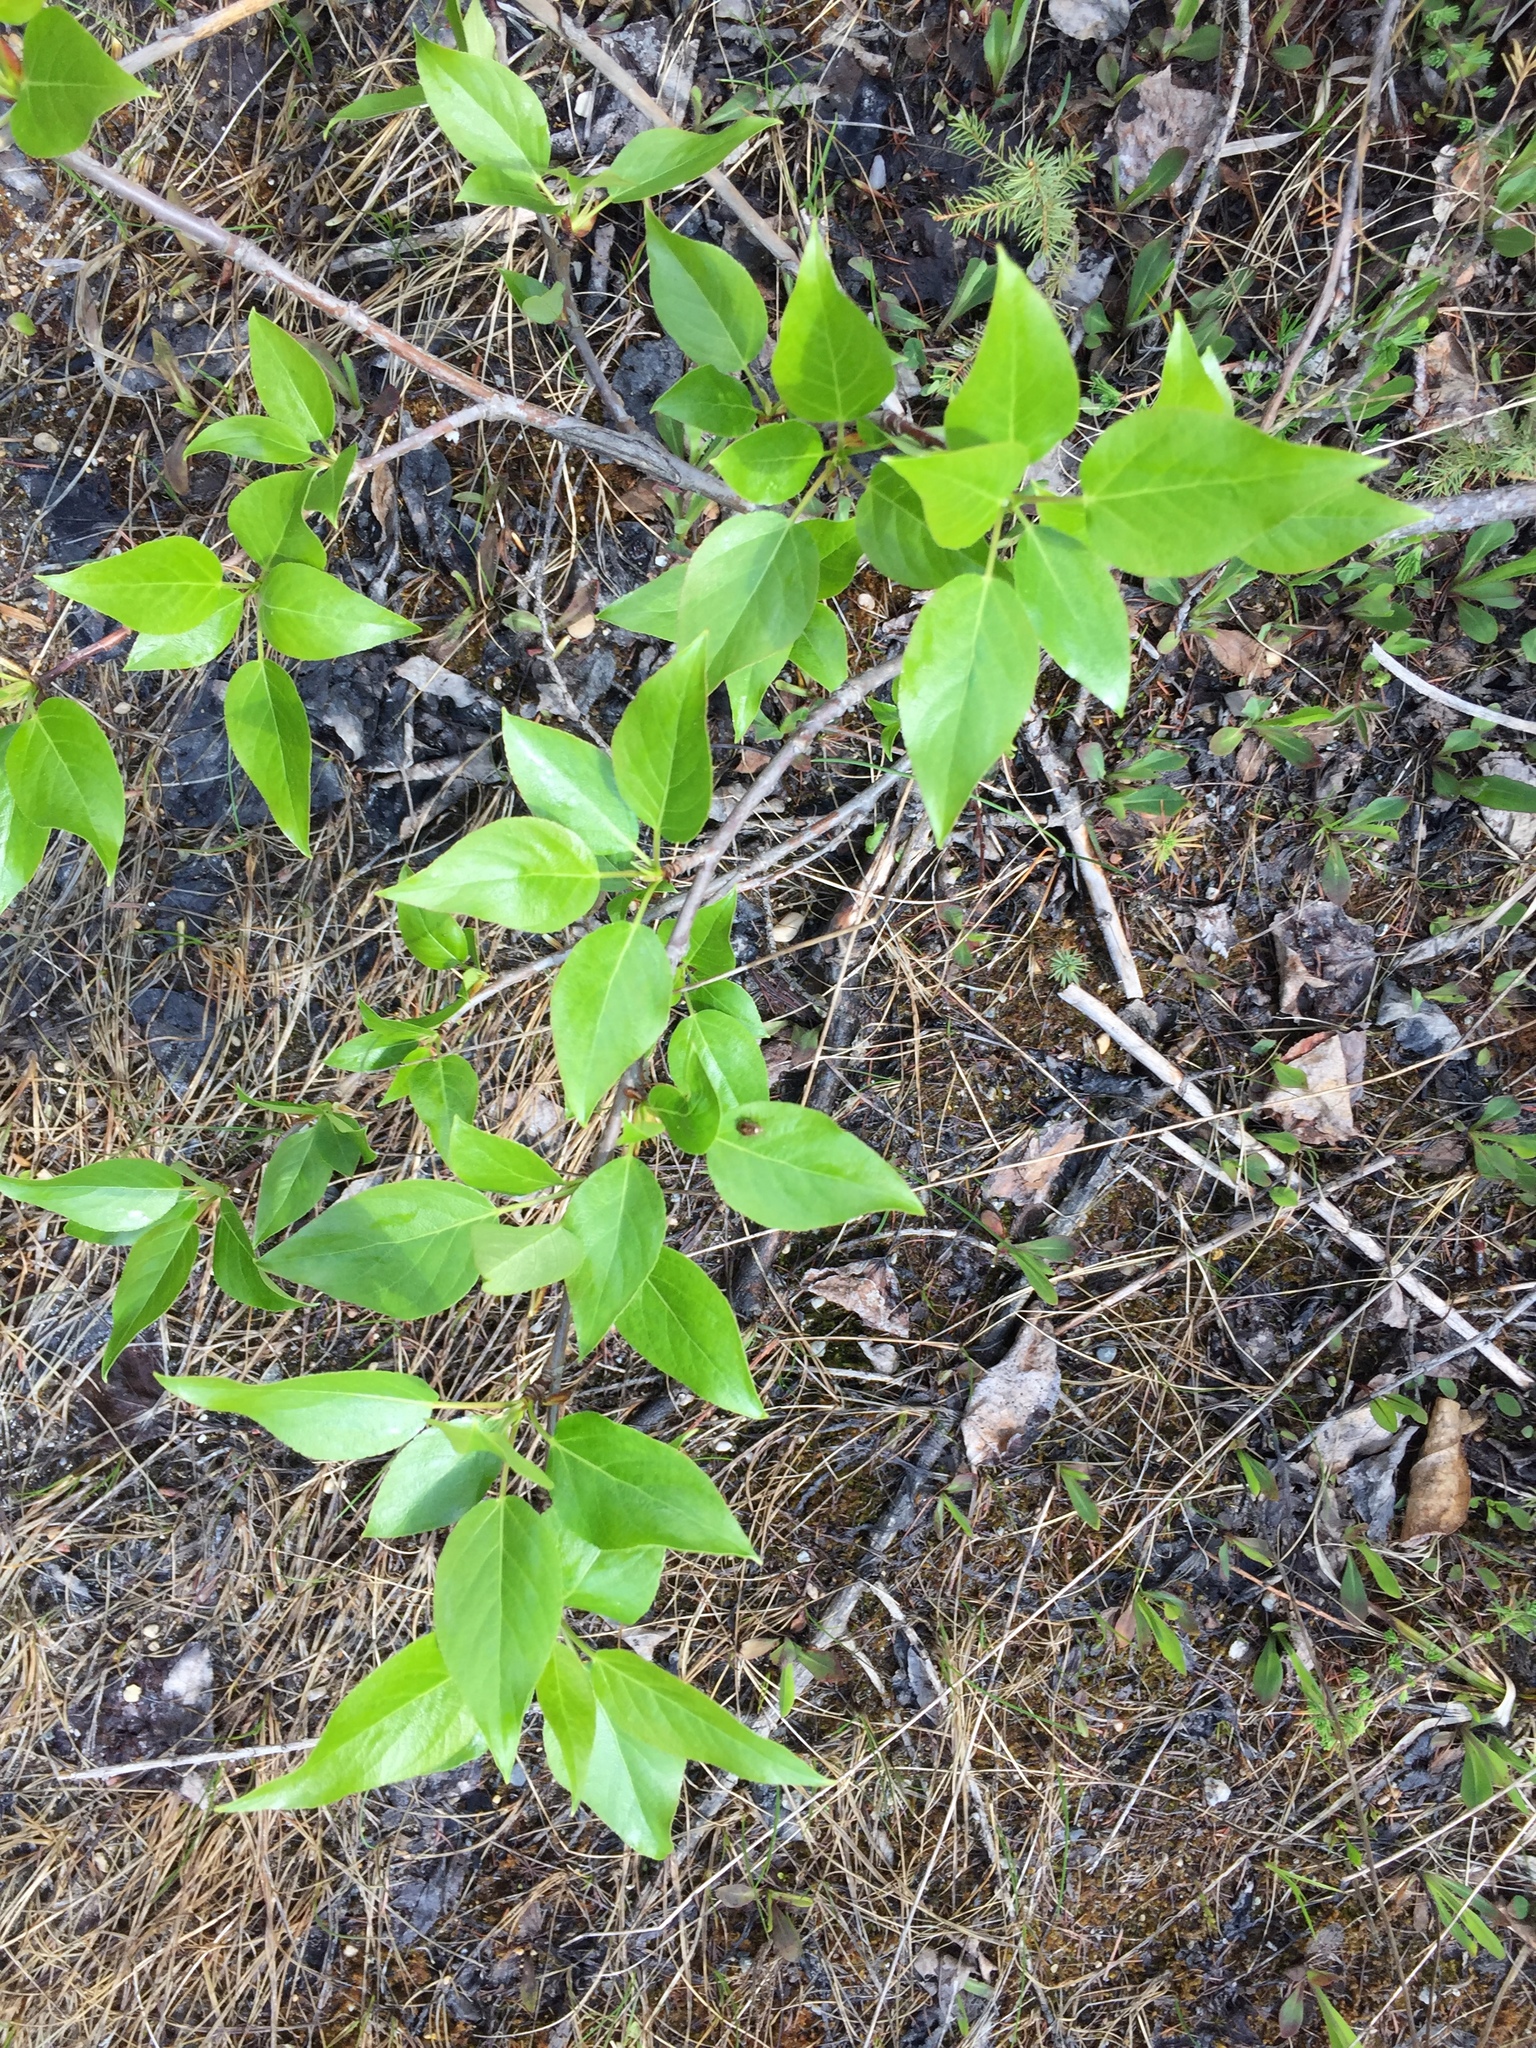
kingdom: Plantae
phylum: Tracheophyta
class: Magnoliopsida
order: Malpighiales
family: Salicaceae
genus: Populus
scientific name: Populus balsamifera
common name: Balsam poplar
